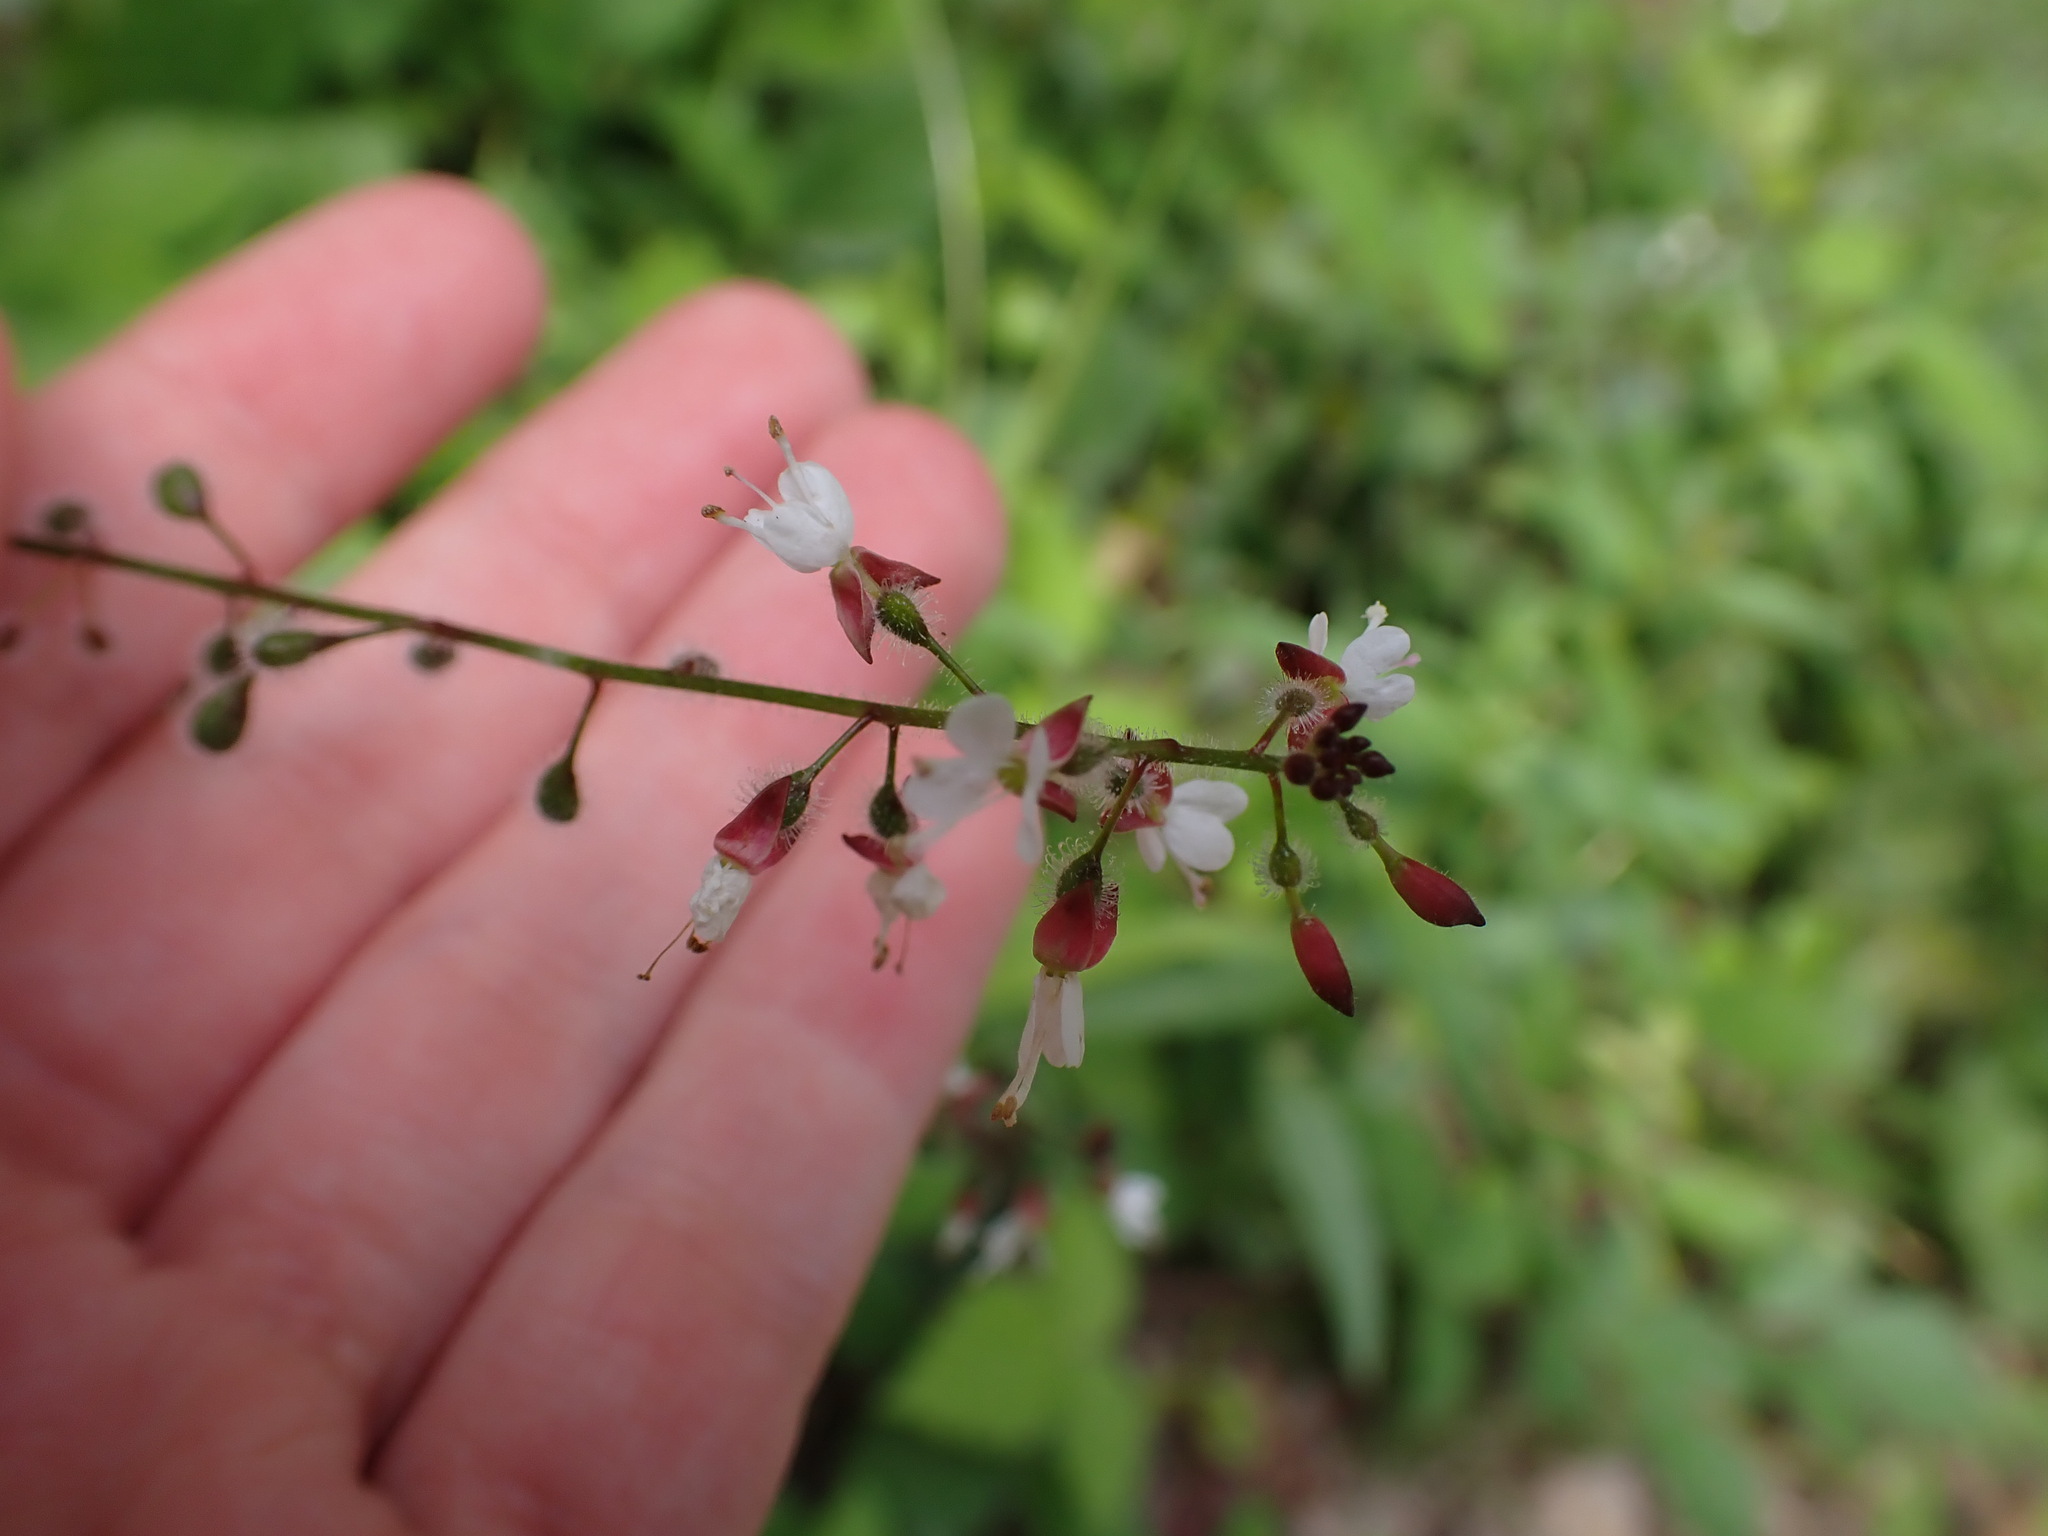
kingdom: Plantae
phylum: Tracheophyta
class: Magnoliopsida
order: Myrtales
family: Onagraceae
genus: Circaea
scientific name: Circaea lutetiana
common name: Enchanter's-nightshade
